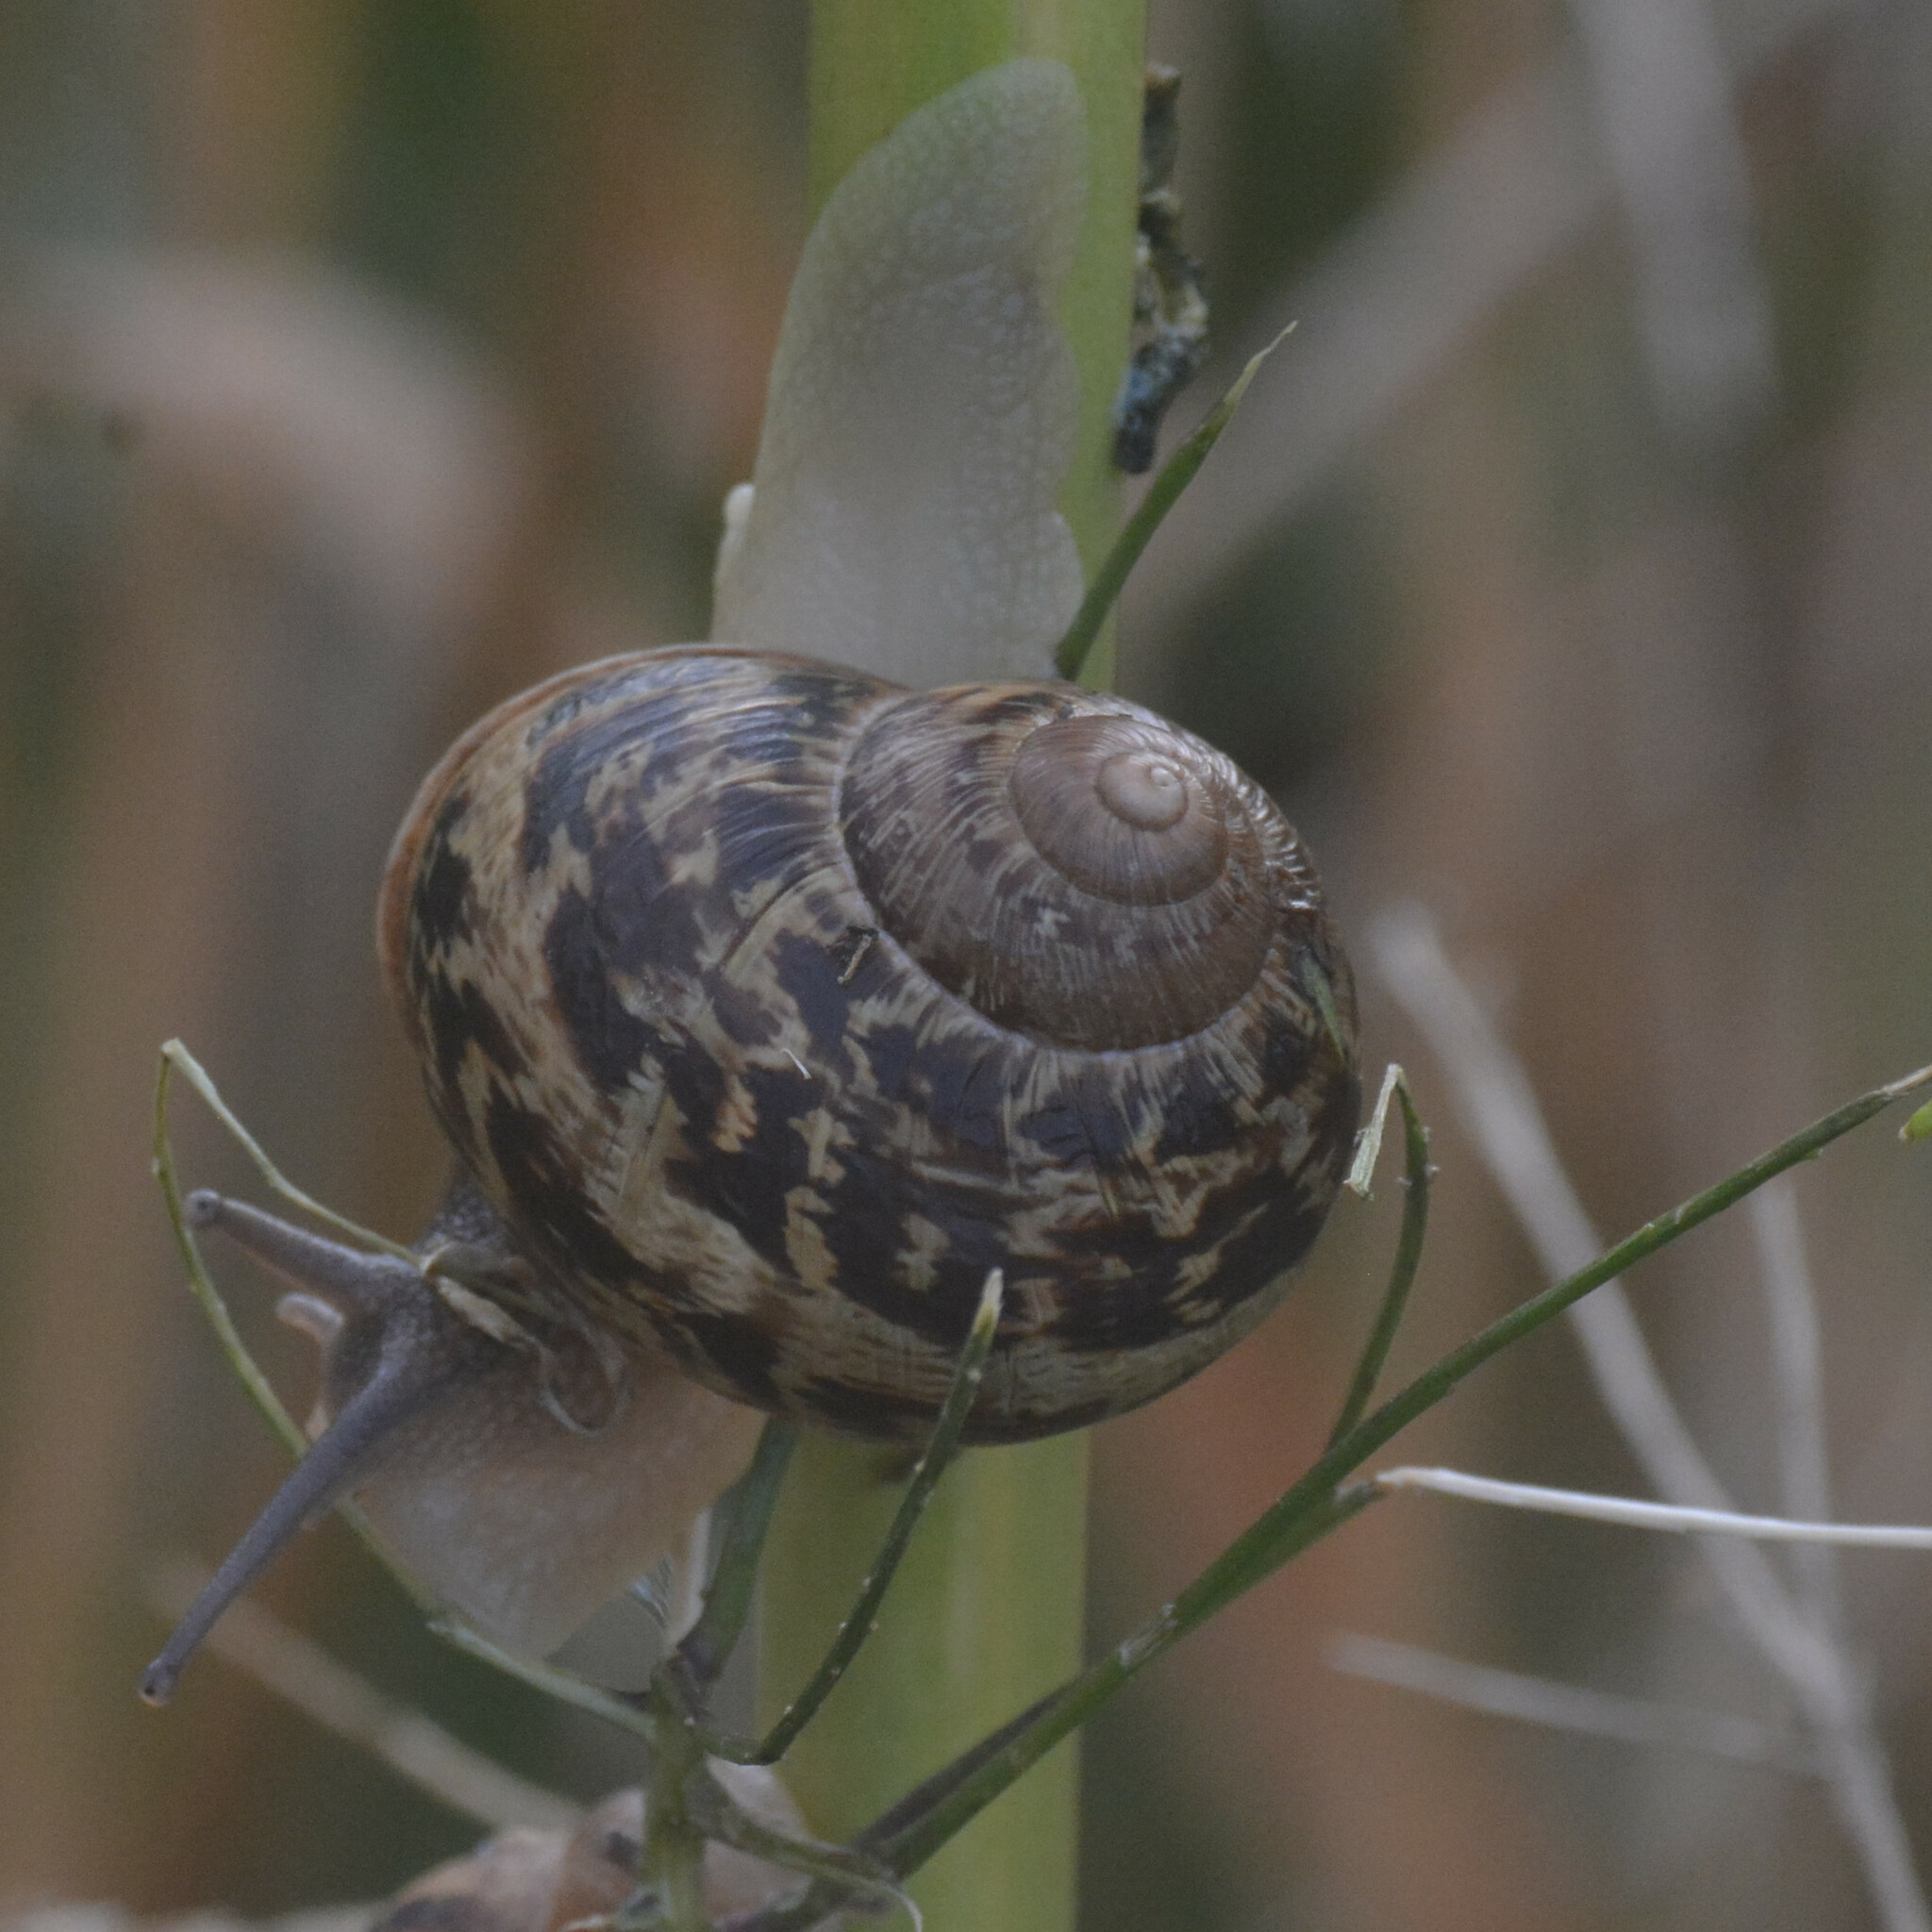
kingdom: Animalia
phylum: Mollusca
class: Gastropoda
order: Stylommatophora
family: Helicidae
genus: Cornu
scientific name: Cornu aspersum
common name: Brown garden snail
